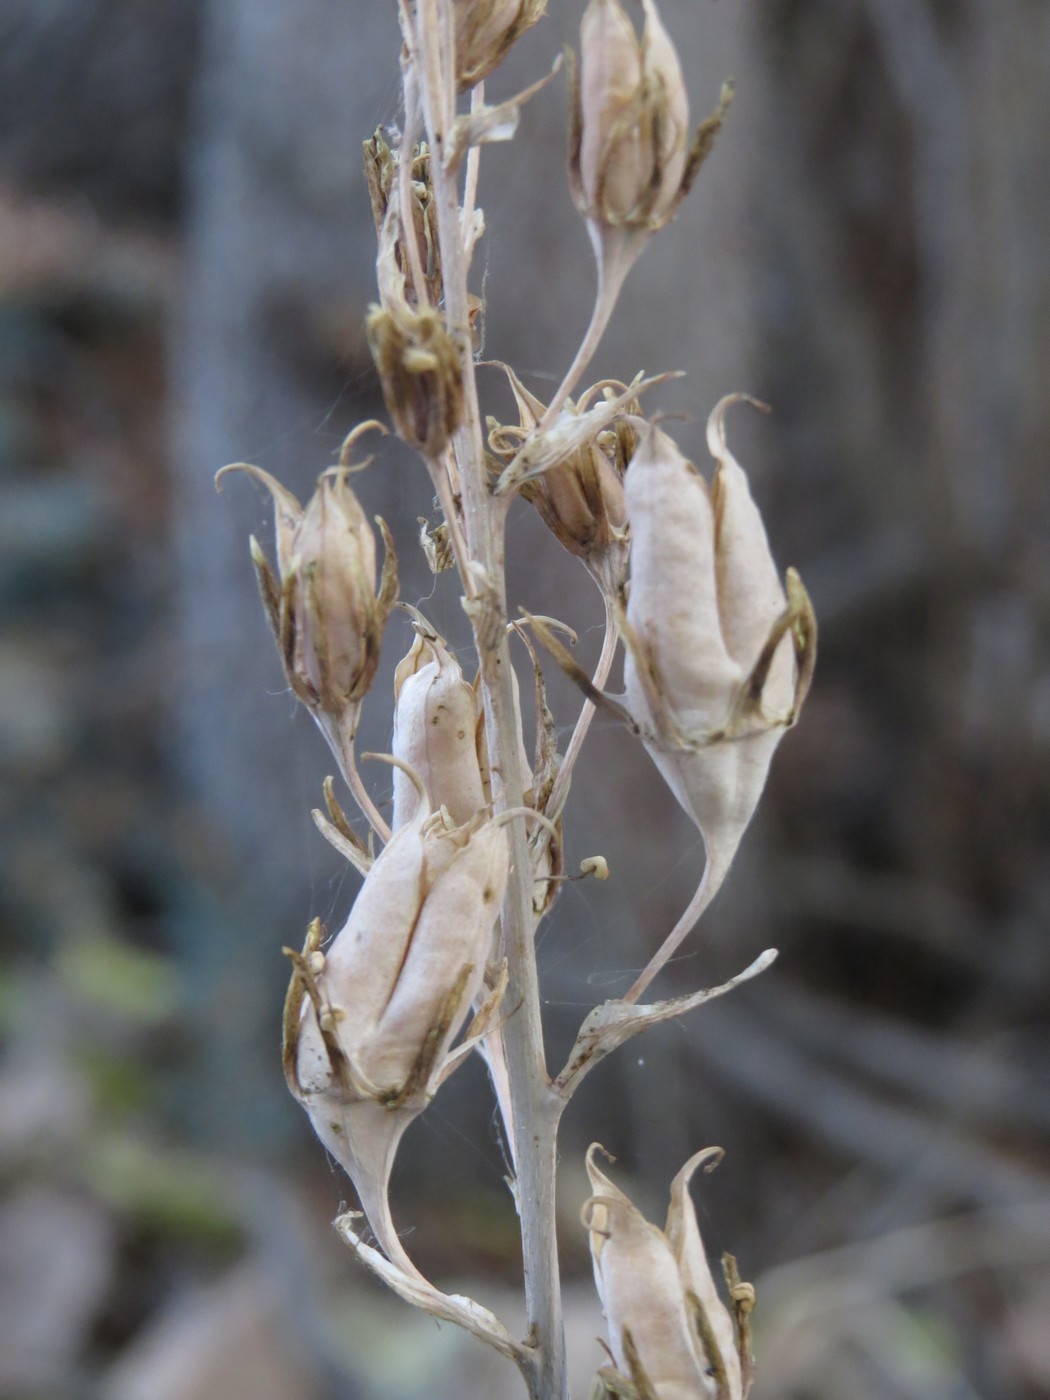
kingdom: Plantae
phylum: Tracheophyta
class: Liliopsida
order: Liliales
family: Melanthiaceae
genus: Anticlea
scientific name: Anticlea occidentalis
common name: Bronze-bells
